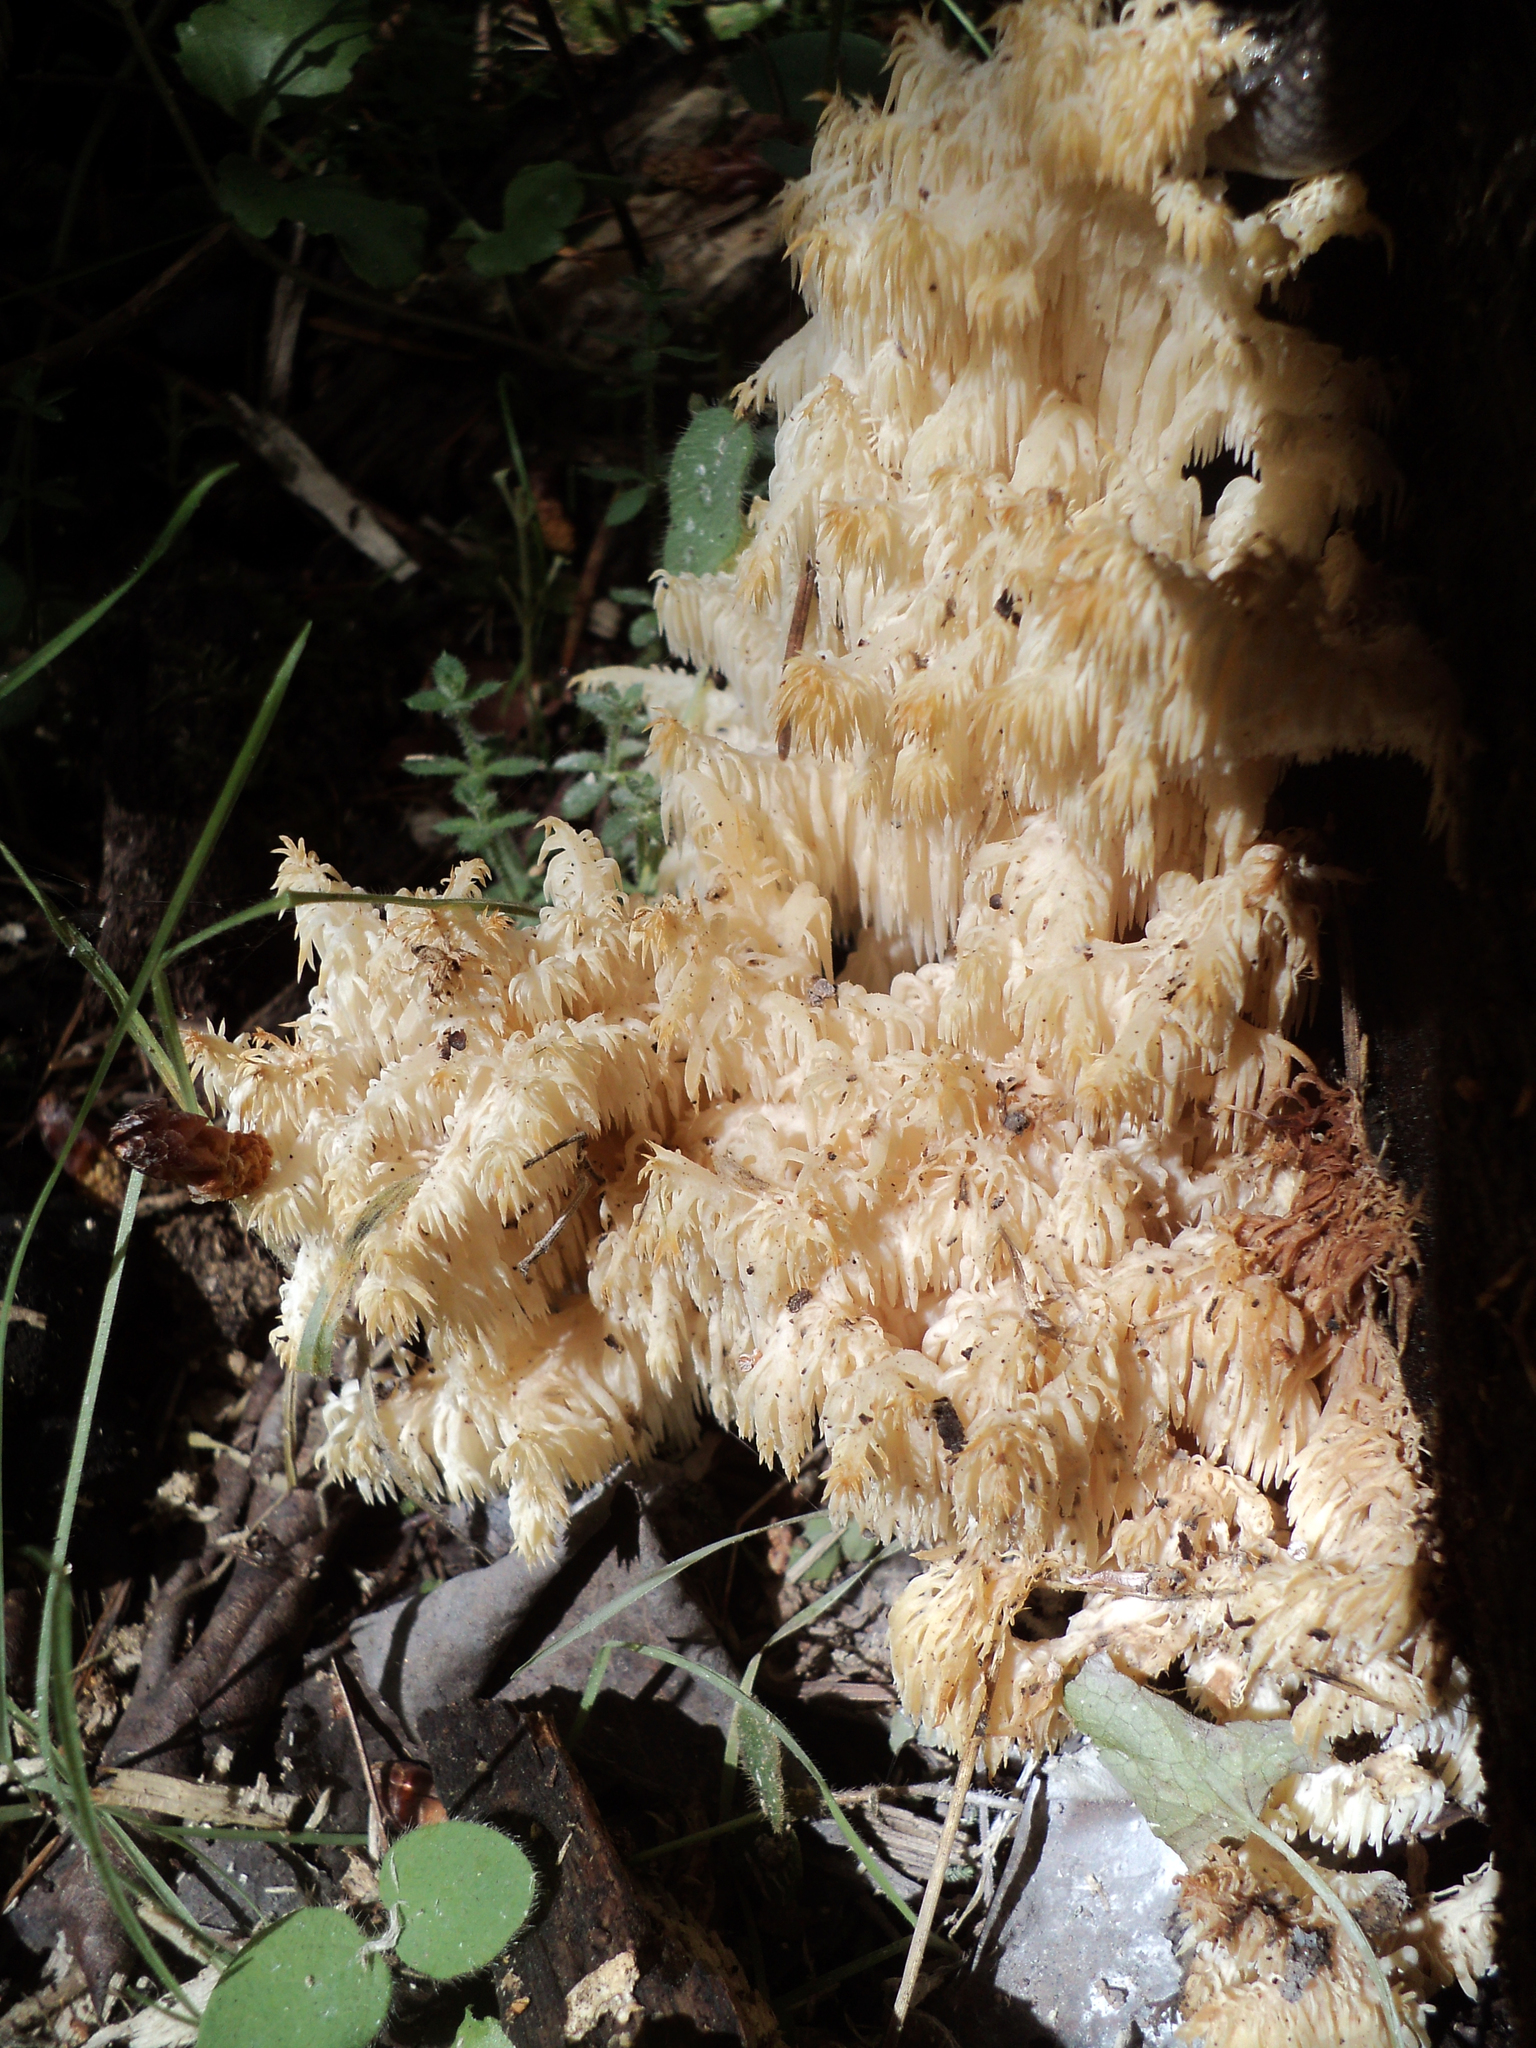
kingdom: Fungi
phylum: Basidiomycota
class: Agaricomycetes
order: Russulales
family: Hericiaceae
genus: Hericium
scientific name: Hericium coralloides
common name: Coral tooth
